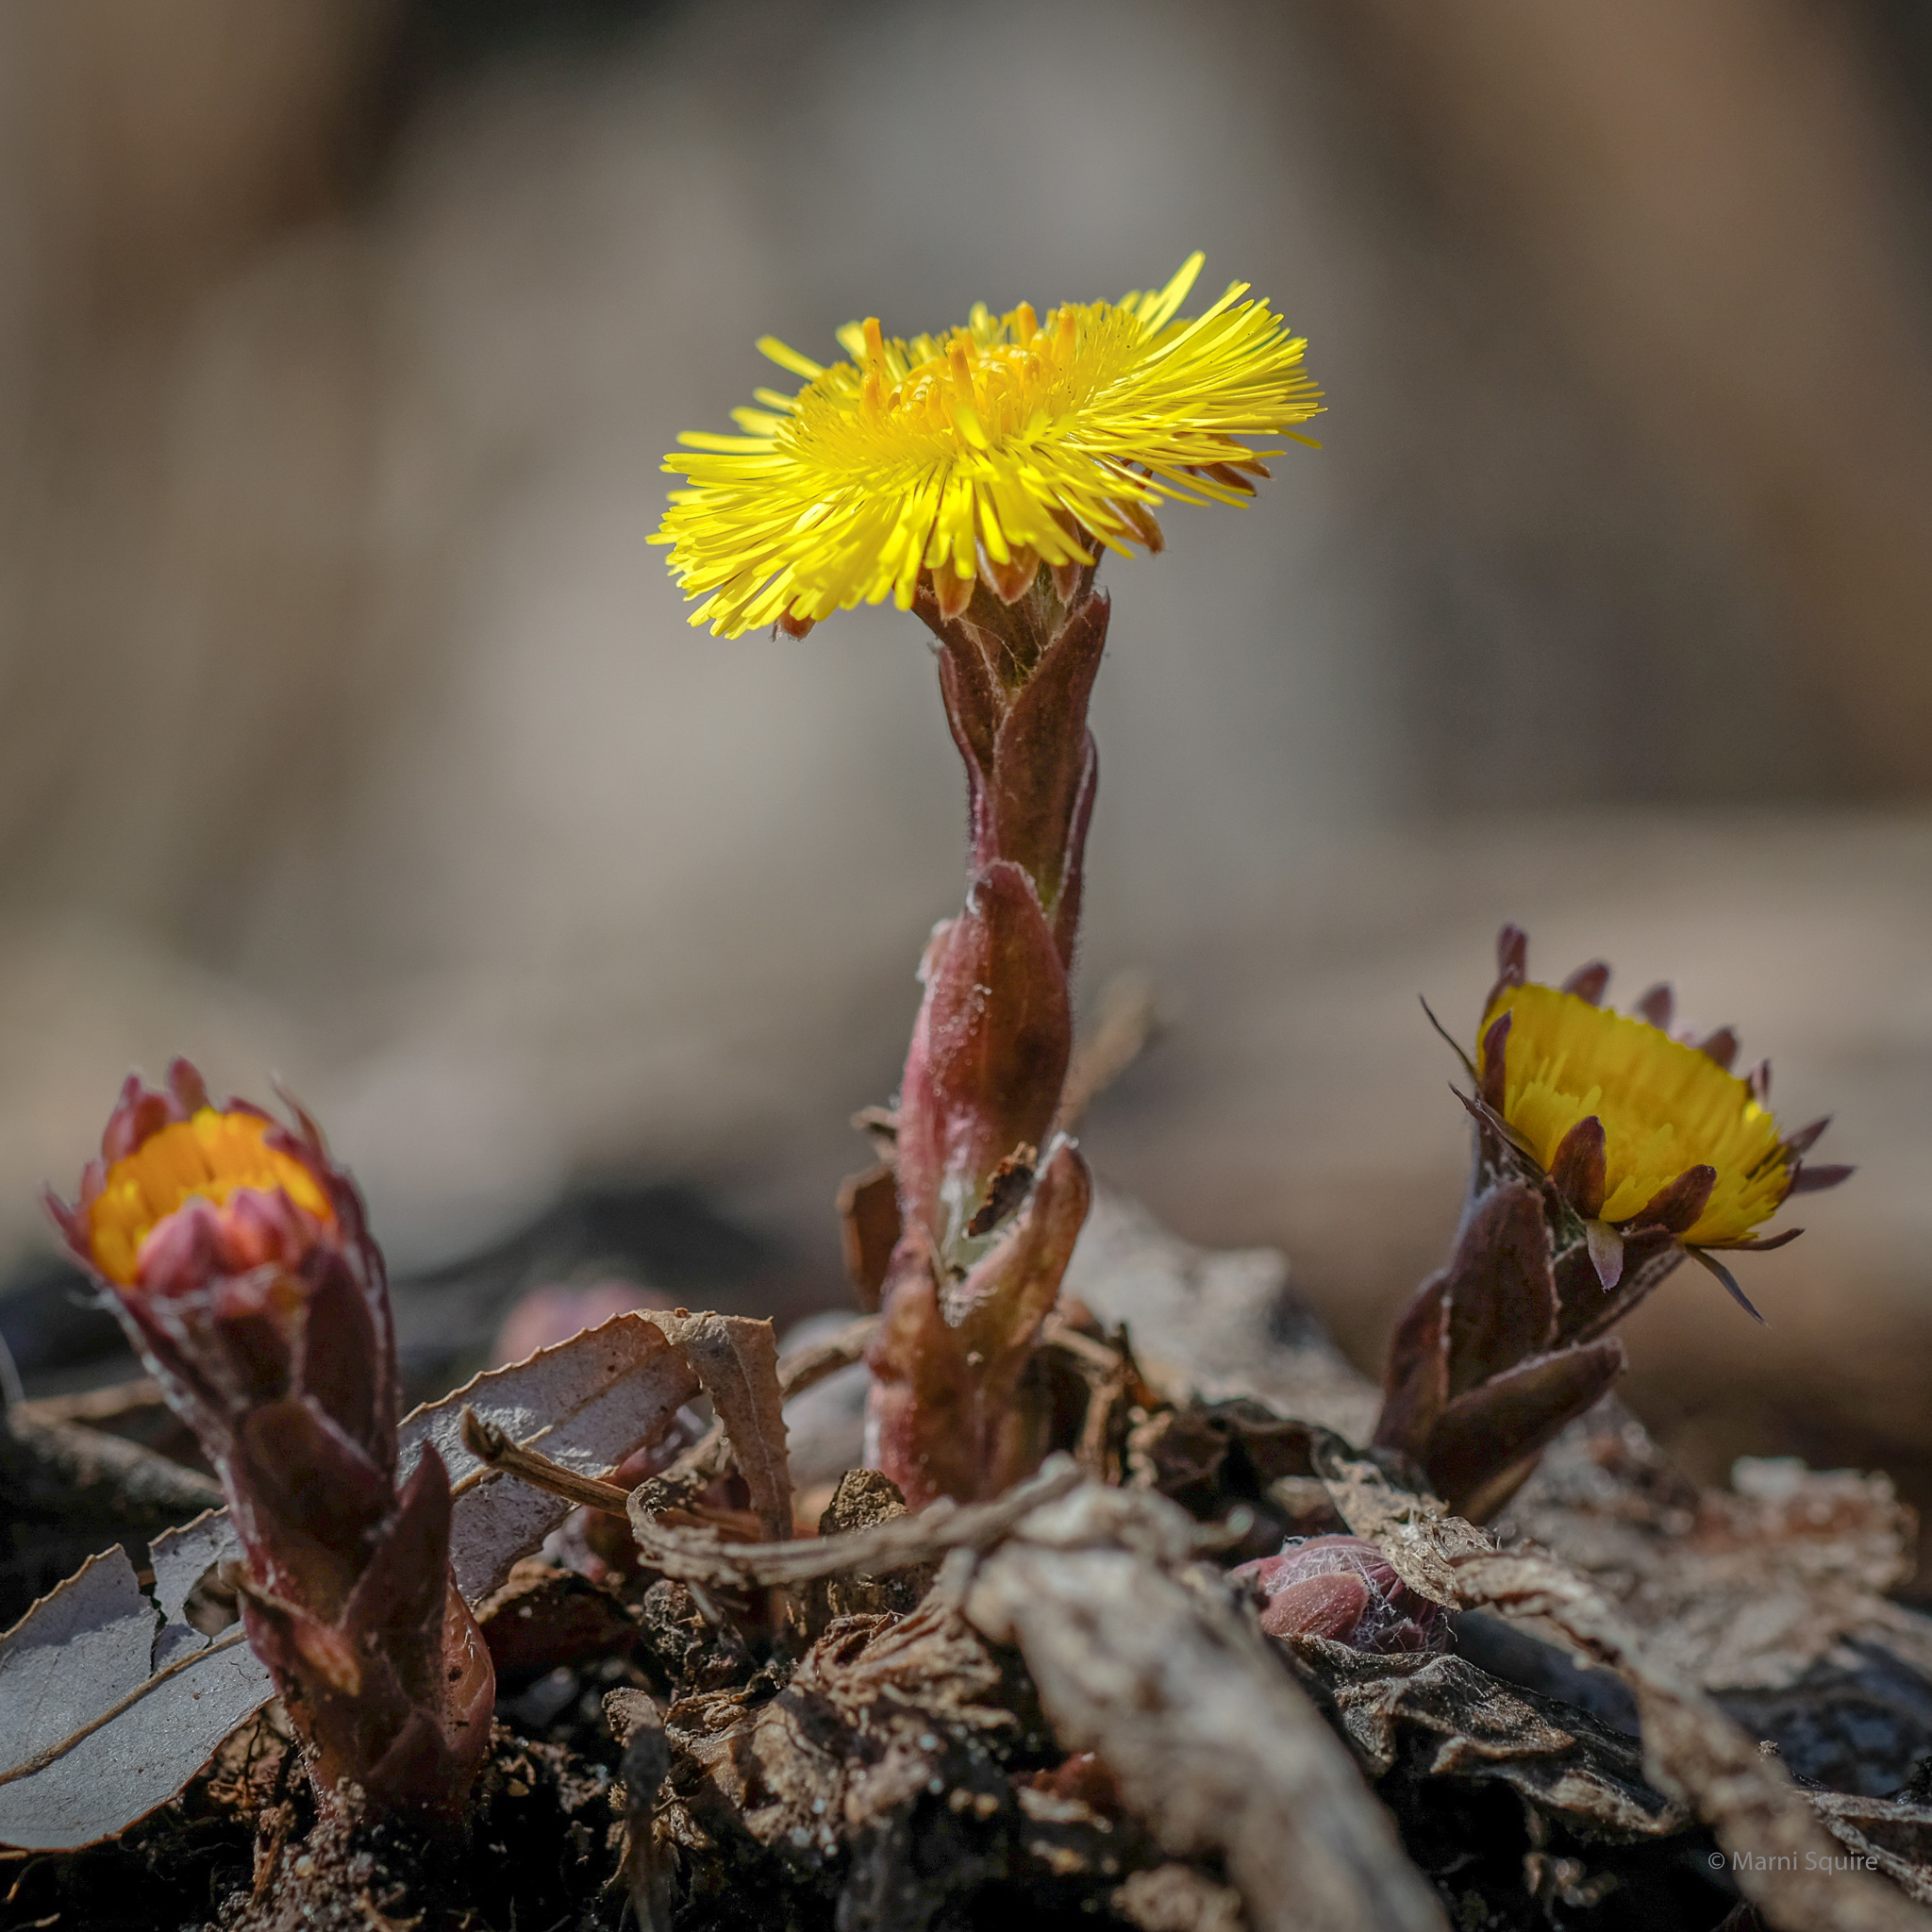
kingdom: Plantae
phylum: Tracheophyta
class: Magnoliopsida
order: Asterales
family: Asteraceae
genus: Tussilago
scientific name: Tussilago farfara
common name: Coltsfoot
